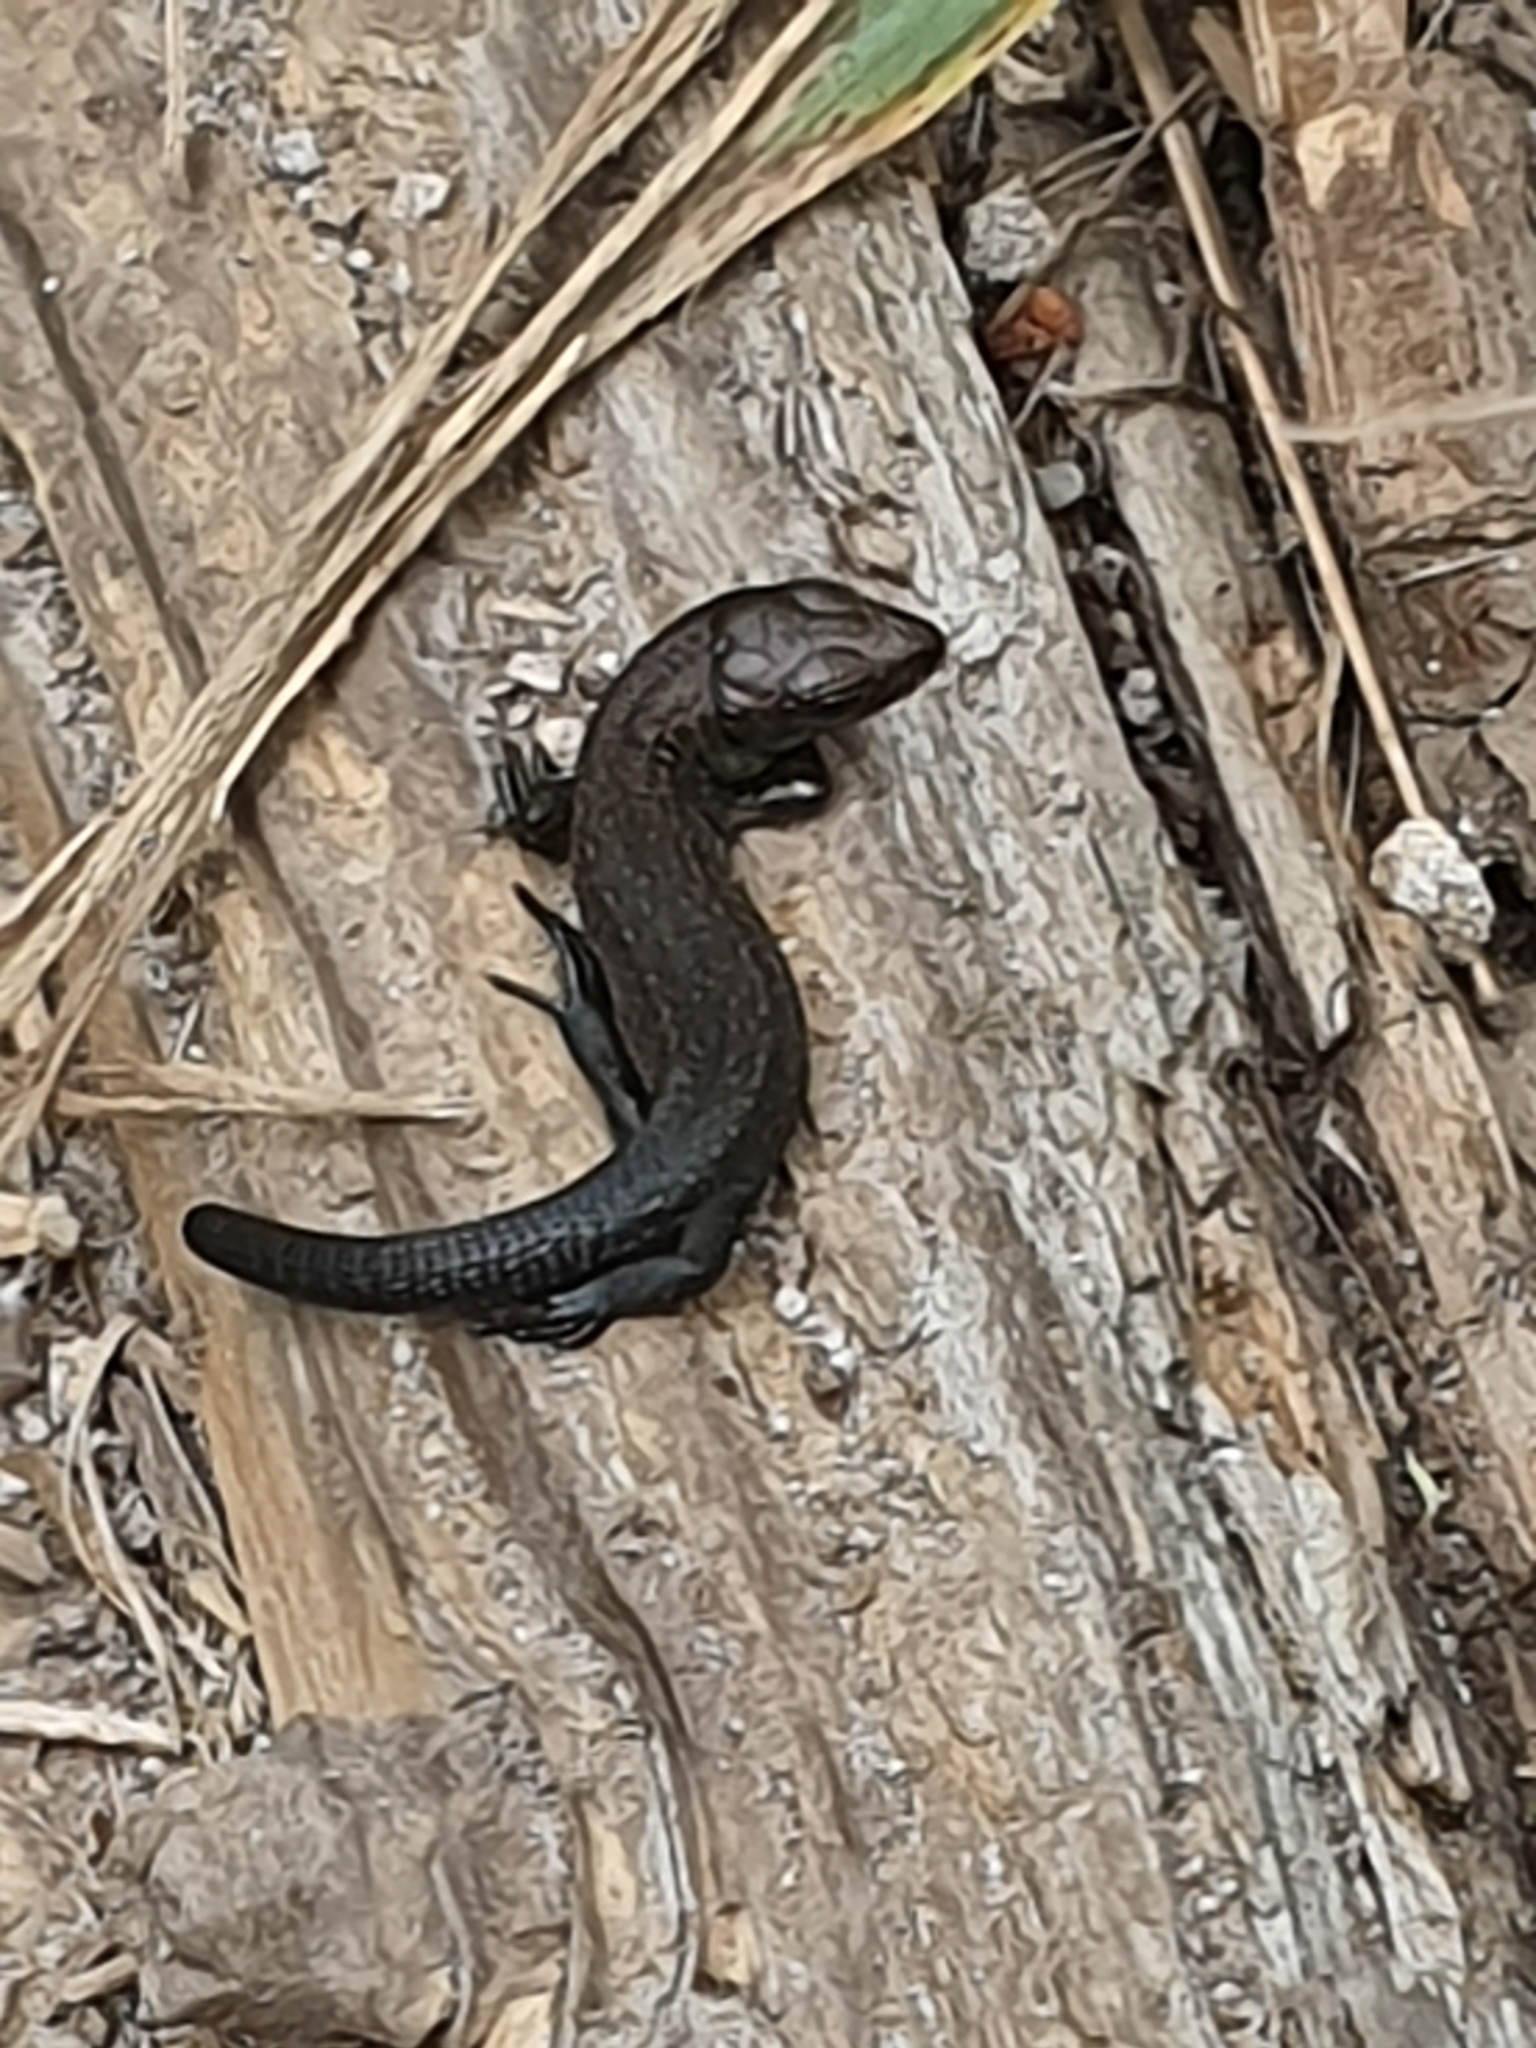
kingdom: Animalia
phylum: Chordata
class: Squamata
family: Lacertidae
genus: Zootoca
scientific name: Zootoca vivipara
